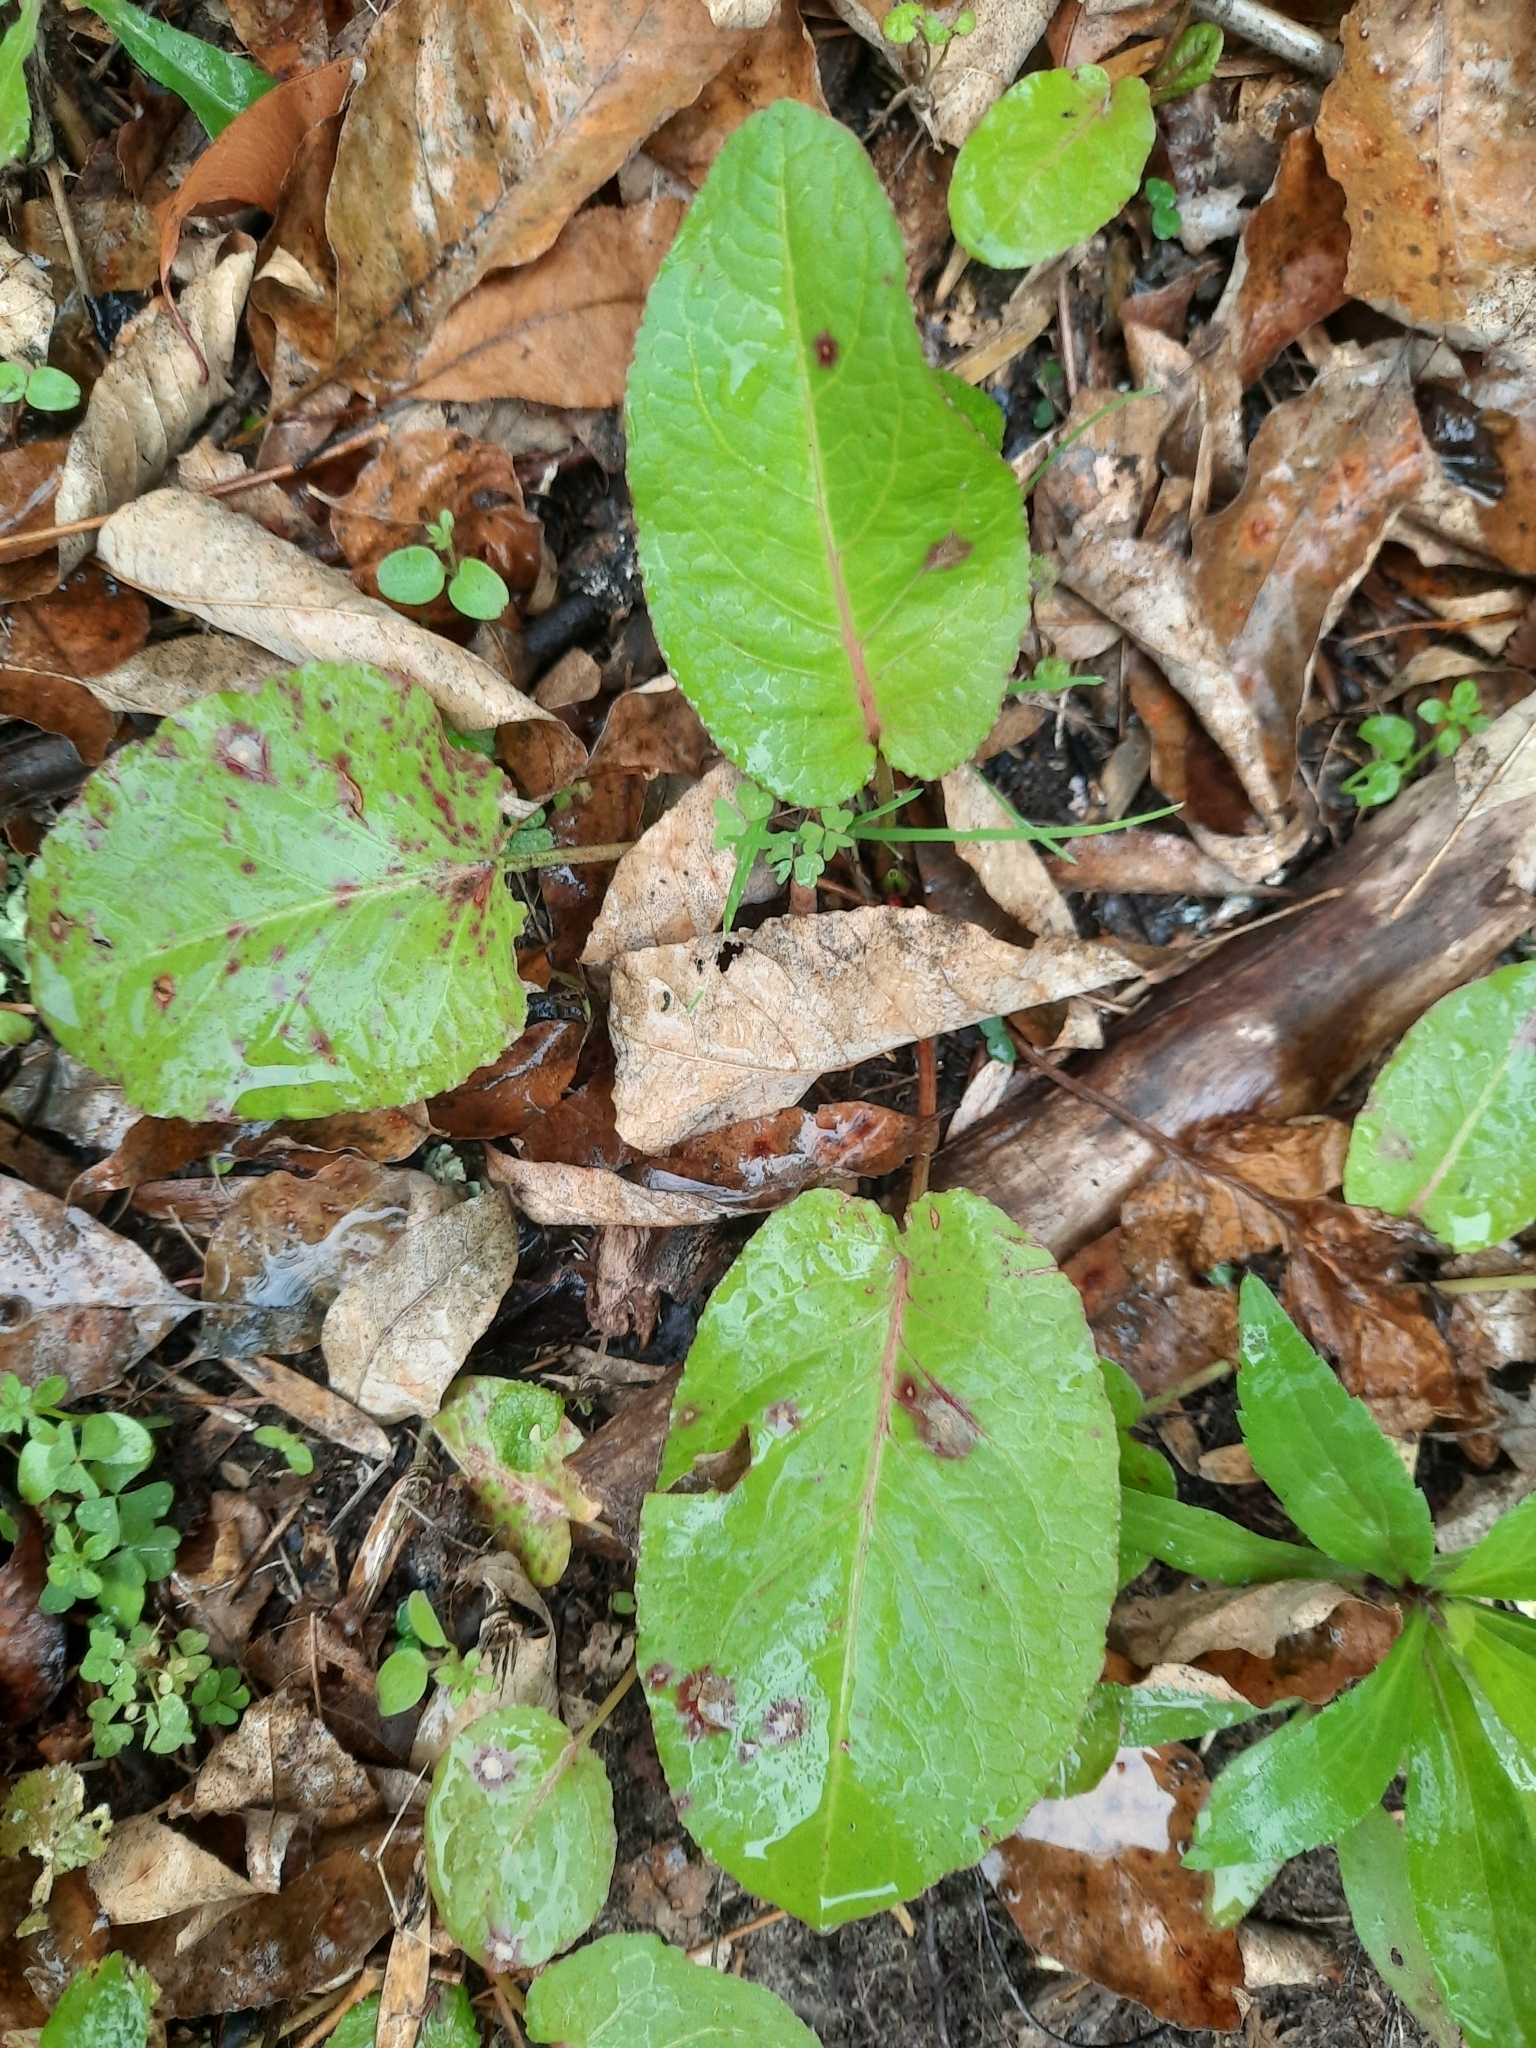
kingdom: Plantae
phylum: Tracheophyta
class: Magnoliopsida
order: Caryophyllales
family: Polygonaceae
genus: Rumex
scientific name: Rumex obtusifolius
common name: Bitter dock
